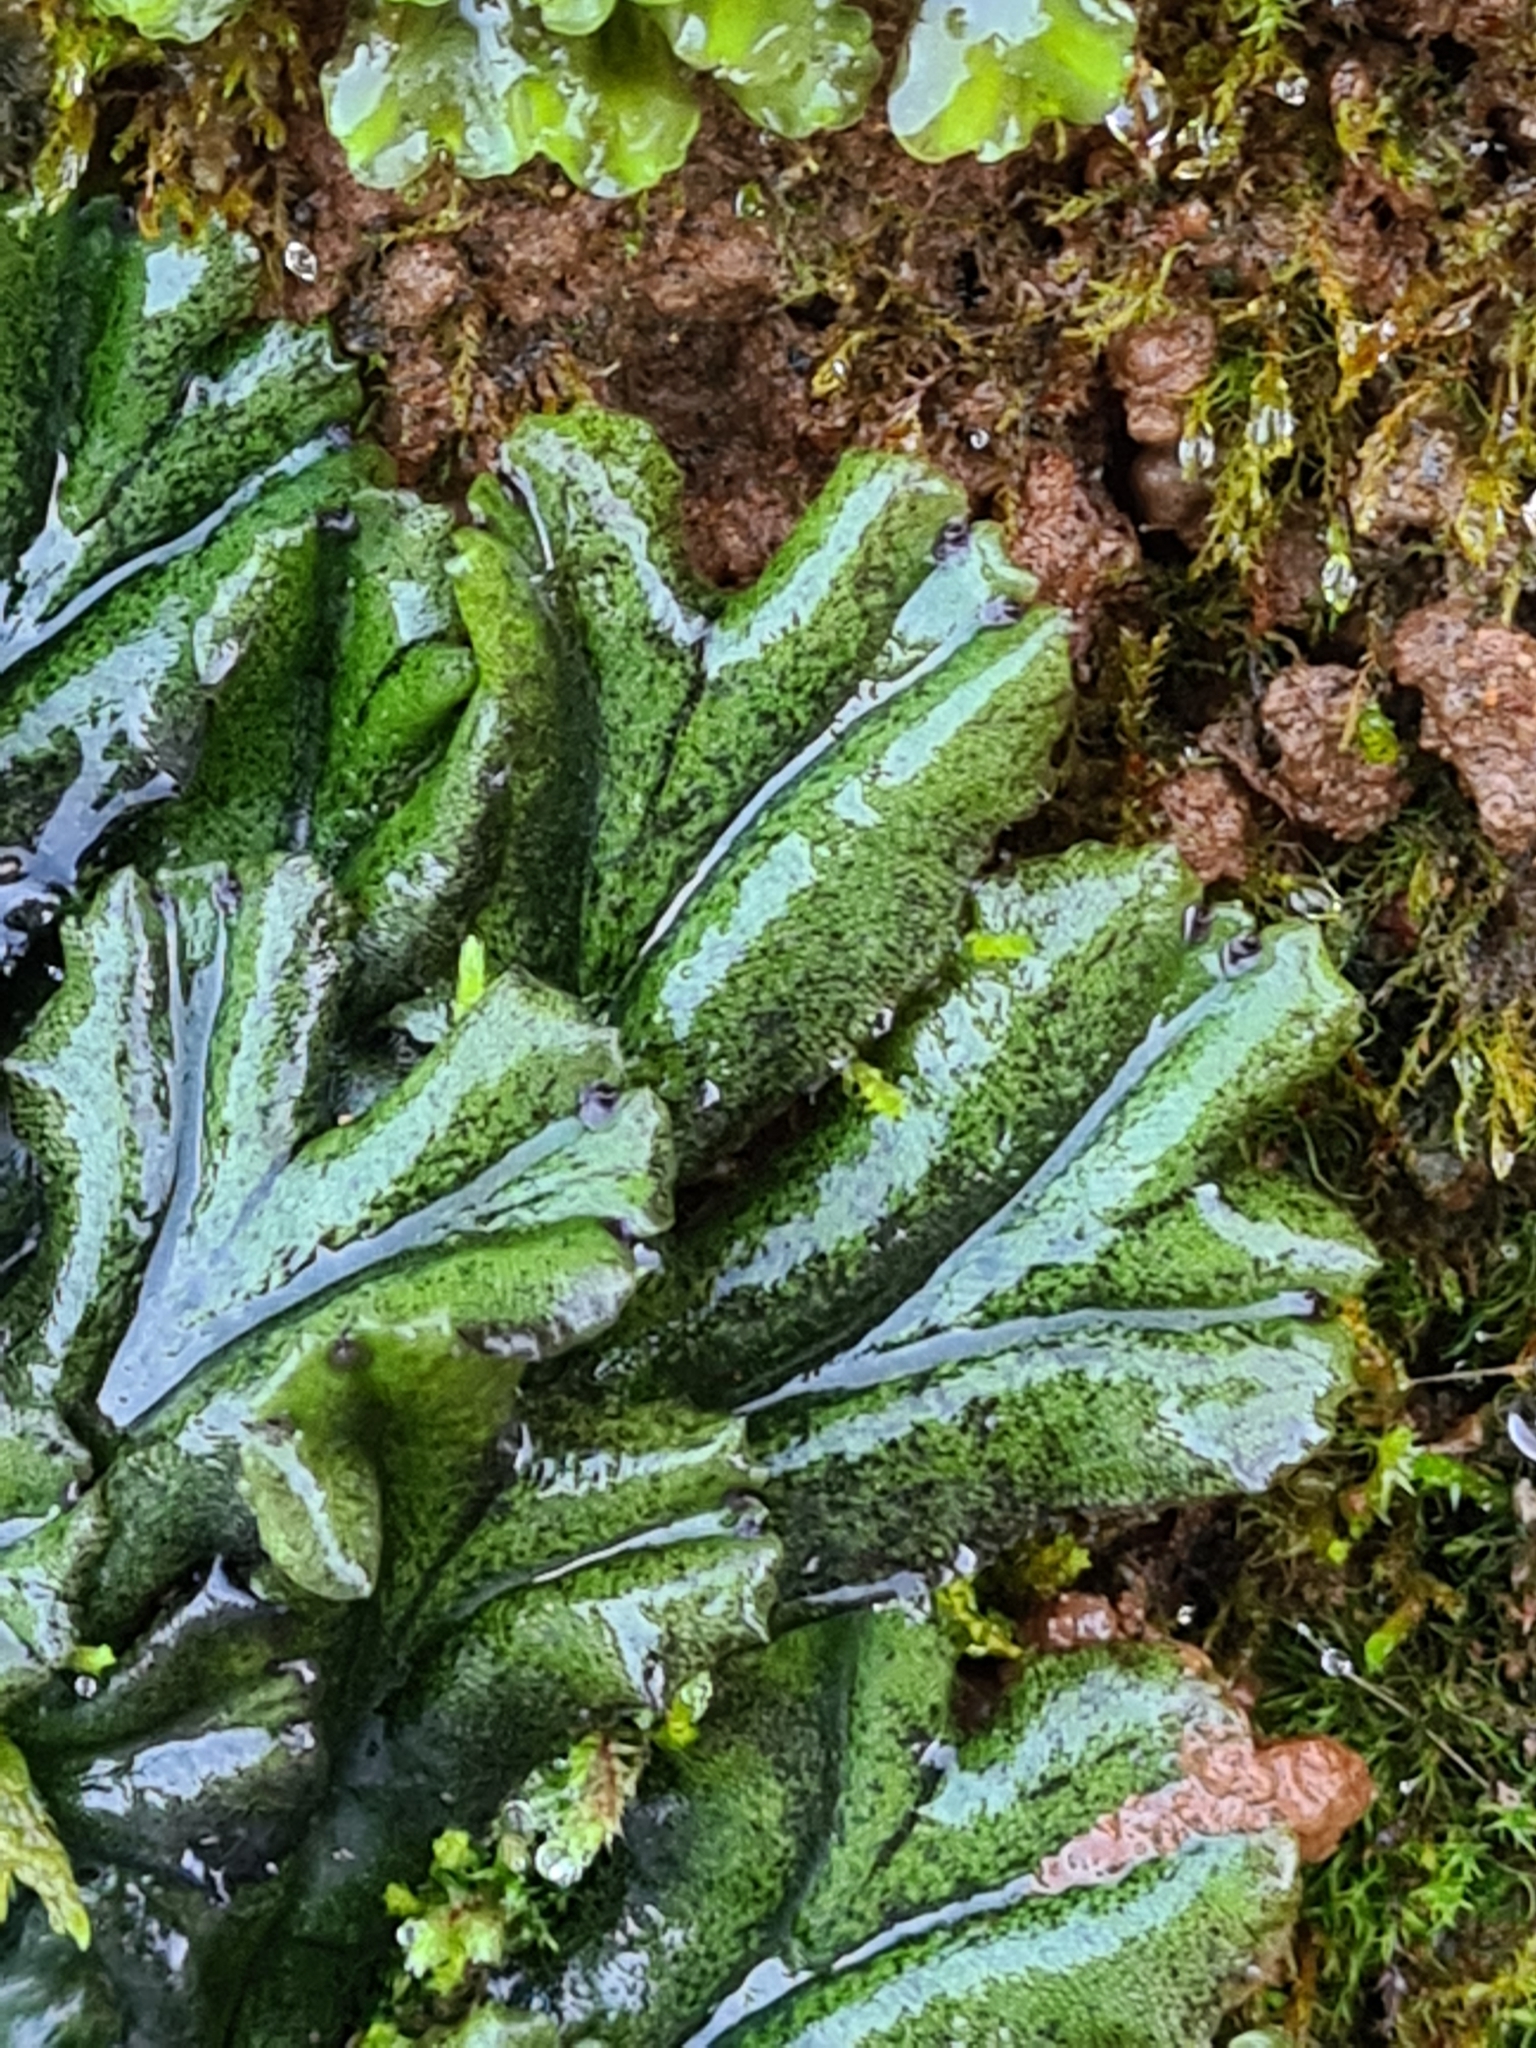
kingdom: Plantae
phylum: Marchantiophyta
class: Marchantiopsida
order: Marchantiales
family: Marchantiaceae
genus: Marchantia
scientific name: Marchantia polymorpha
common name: Common liverwort
